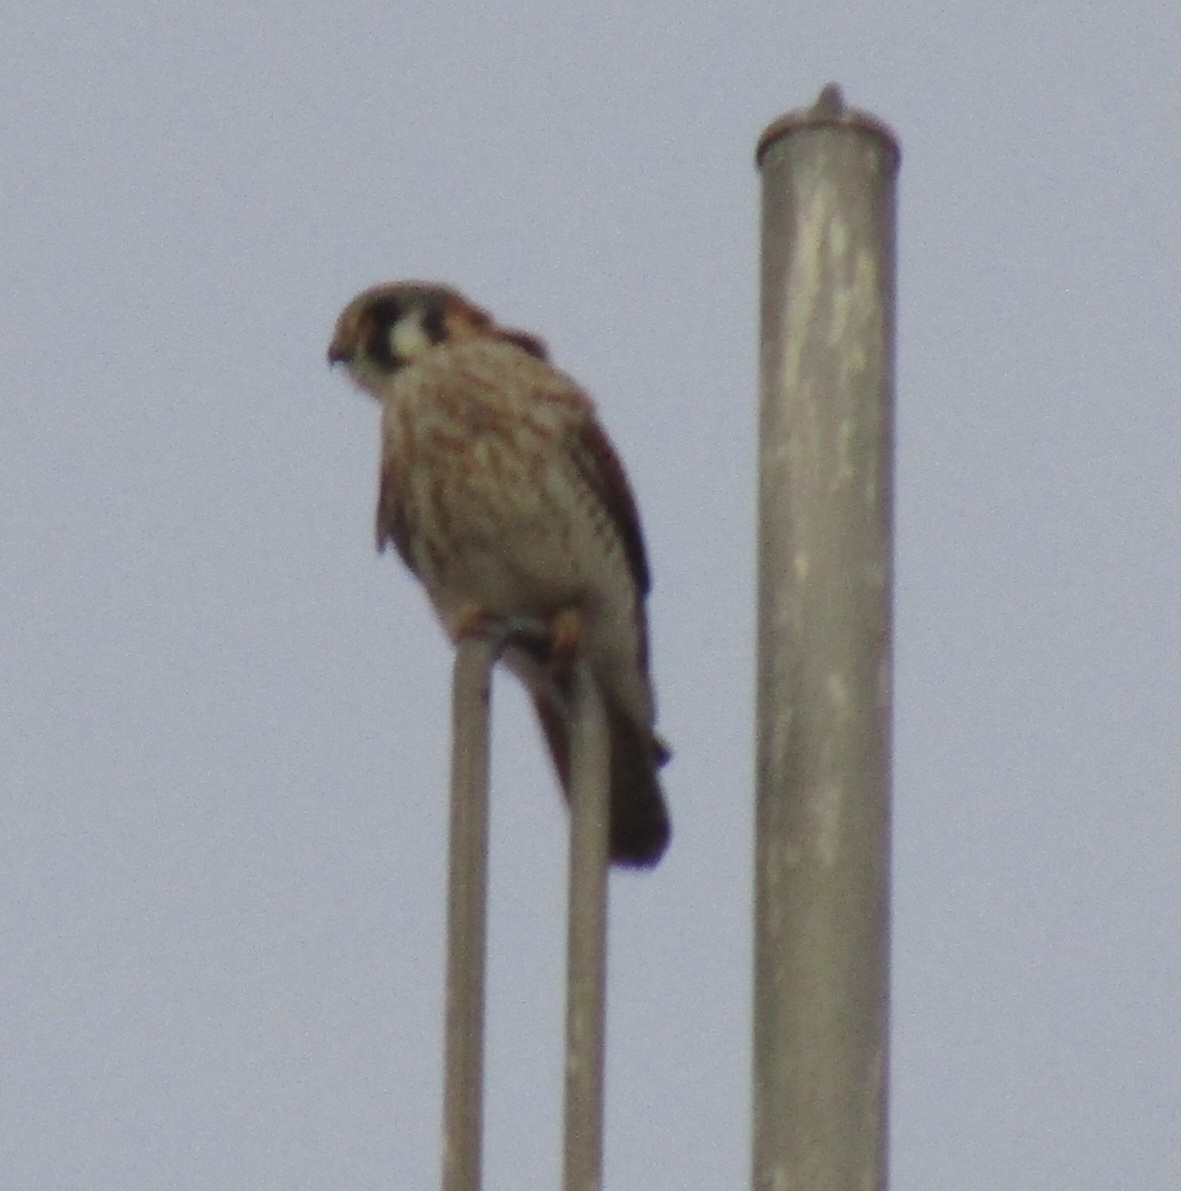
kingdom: Animalia
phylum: Chordata
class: Aves
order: Falconiformes
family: Falconidae
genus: Falco
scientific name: Falco sparverius
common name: American kestrel
